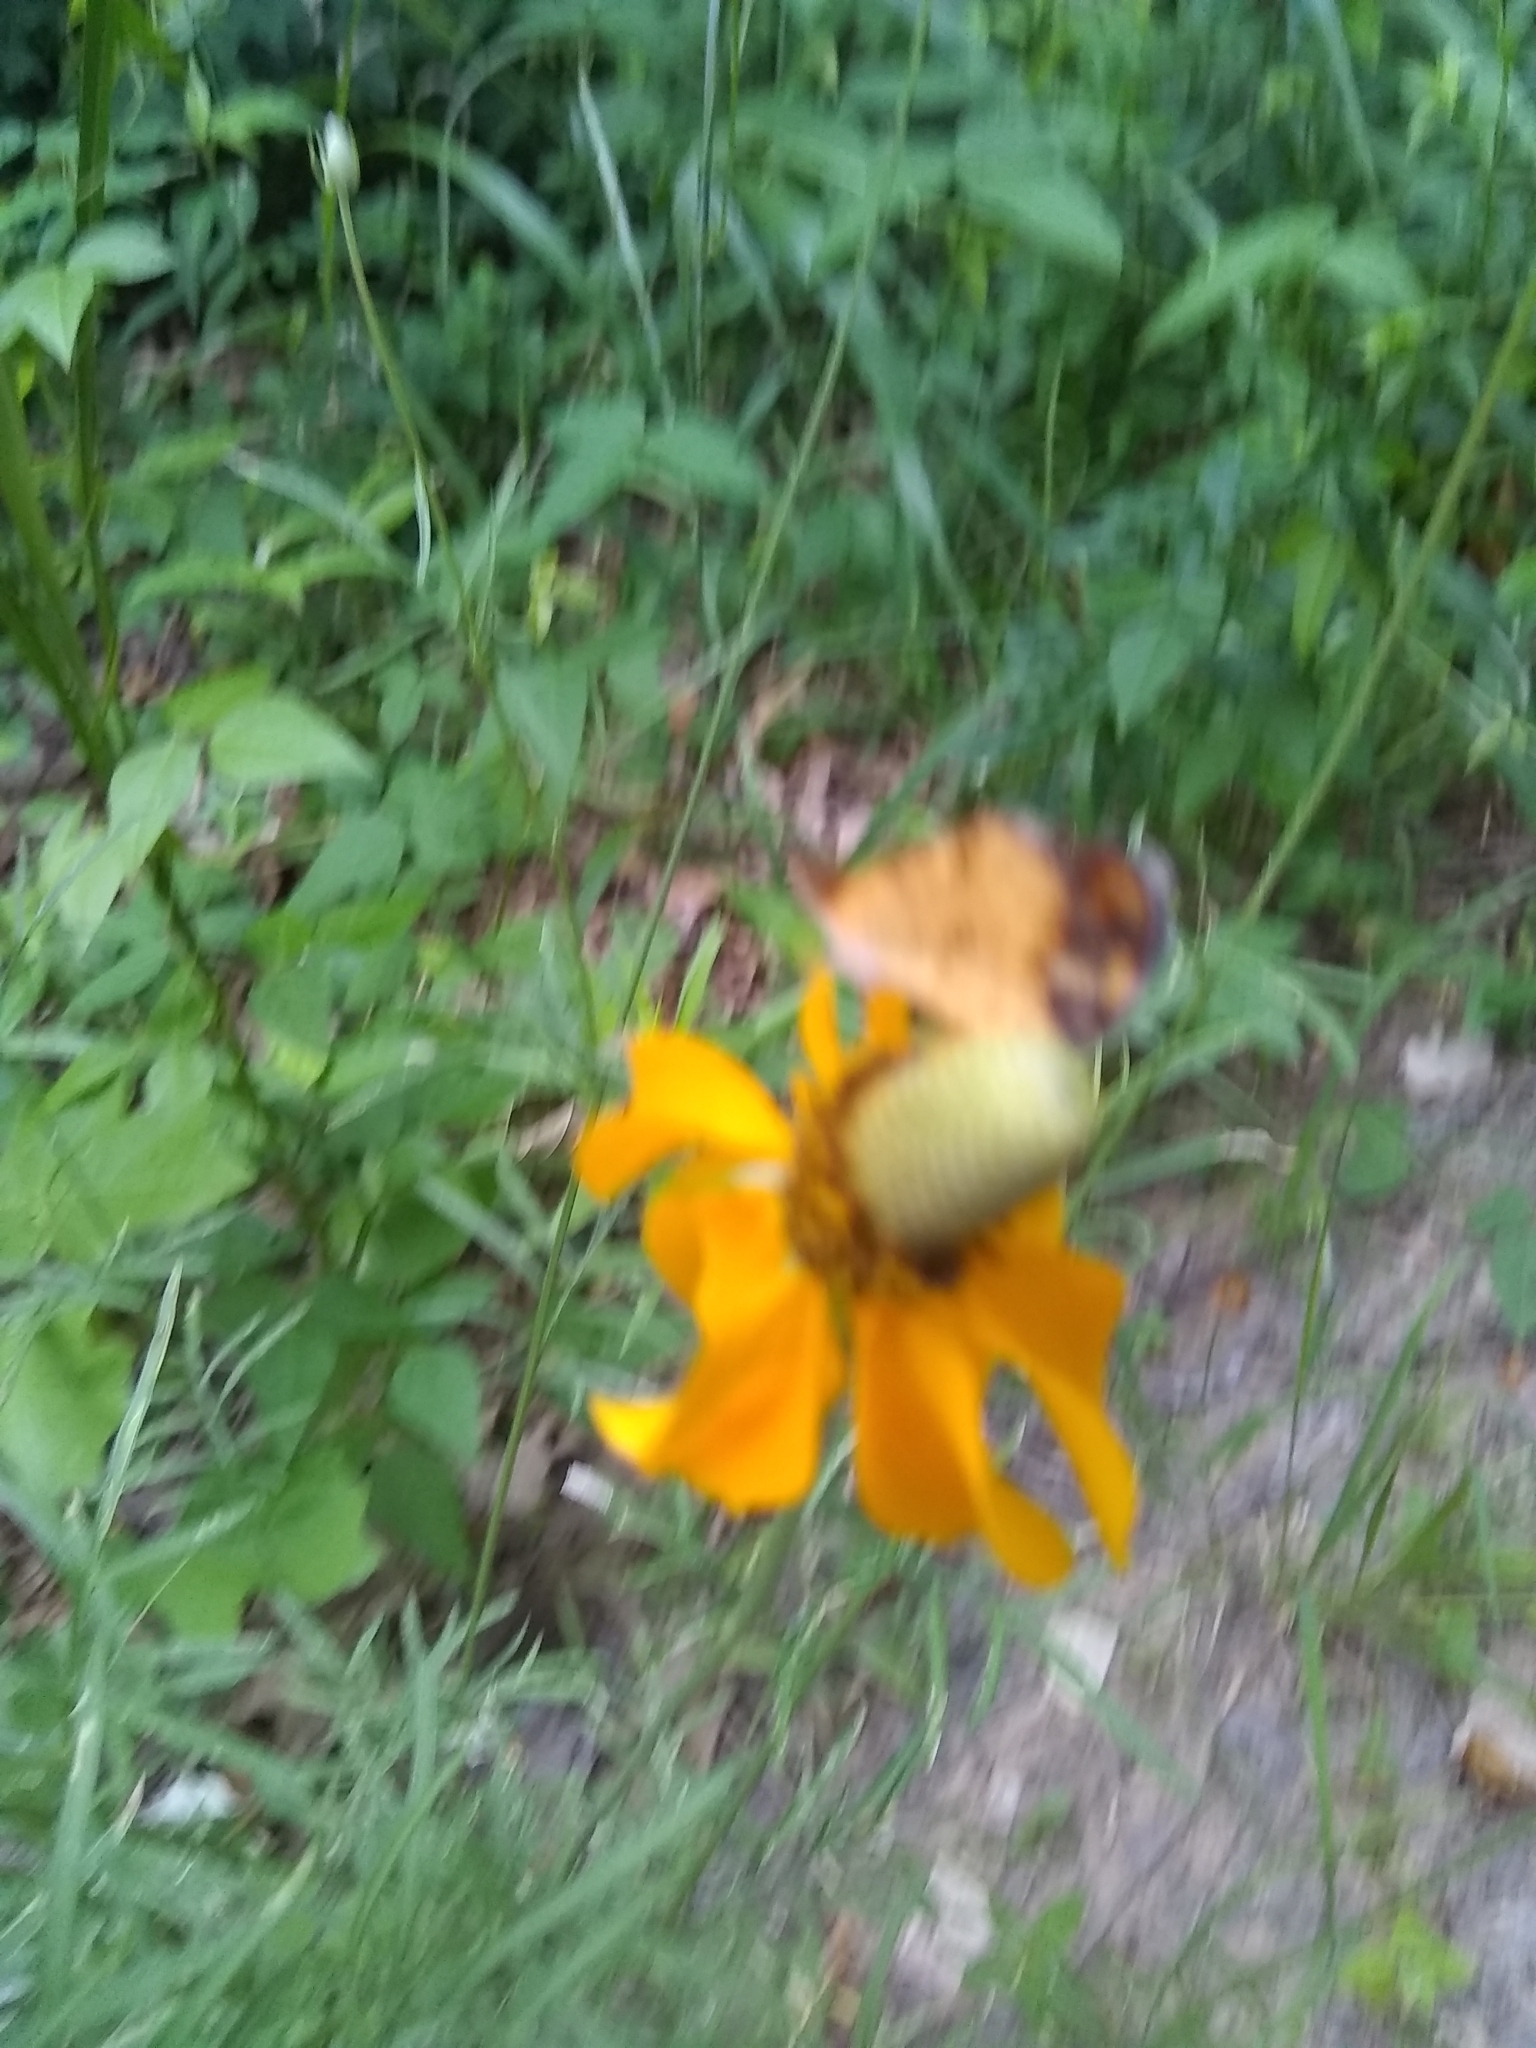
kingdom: Plantae
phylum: Tracheophyta
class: Magnoliopsida
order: Asterales
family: Asteraceae
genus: Ratibida
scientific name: Ratibida columnifera
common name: Prairie coneflower
